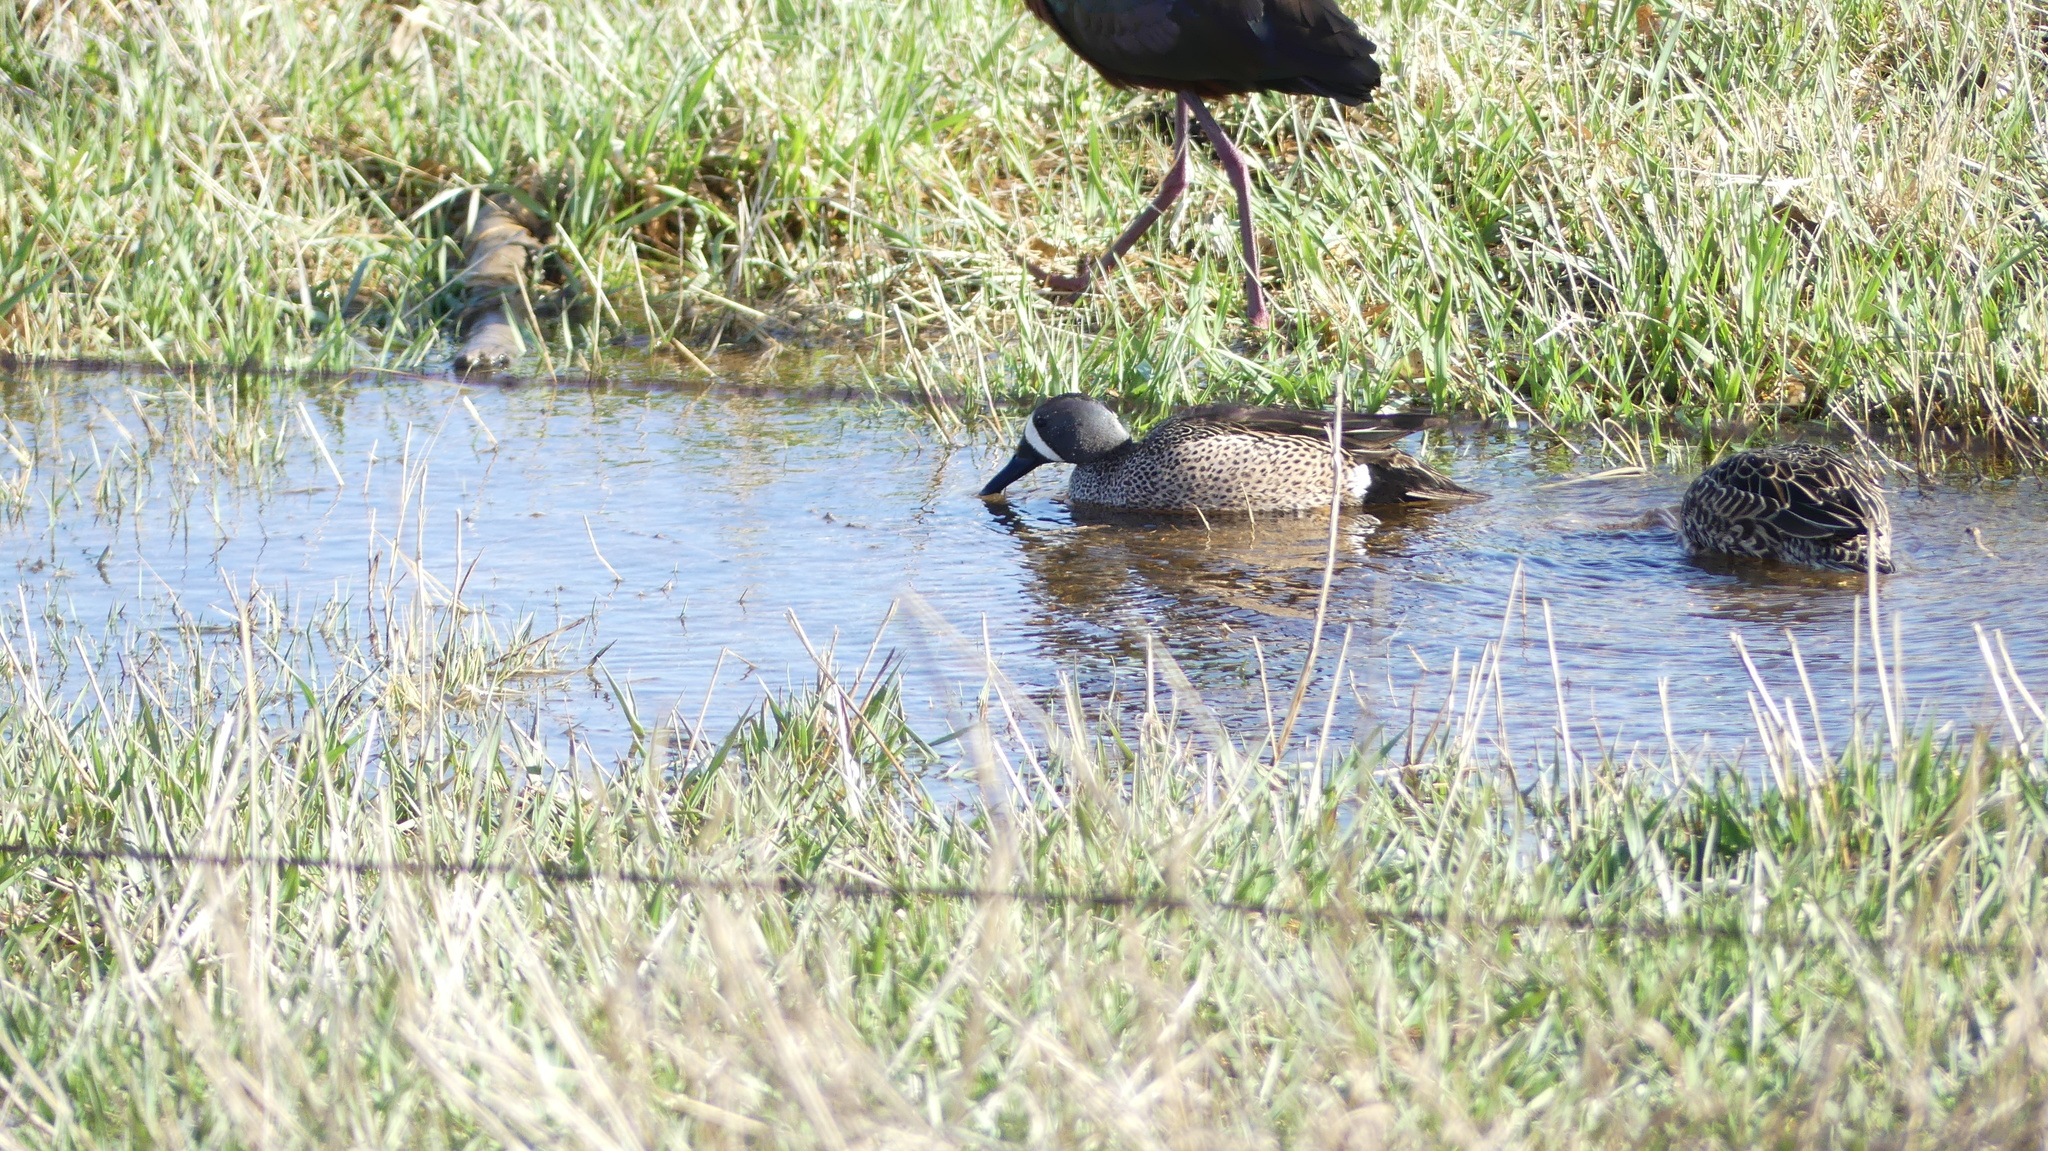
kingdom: Animalia
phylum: Chordata
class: Aves
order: Anseriformes
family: Anatidae
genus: Spatula
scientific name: Spatula discors
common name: Blue-winged teal
